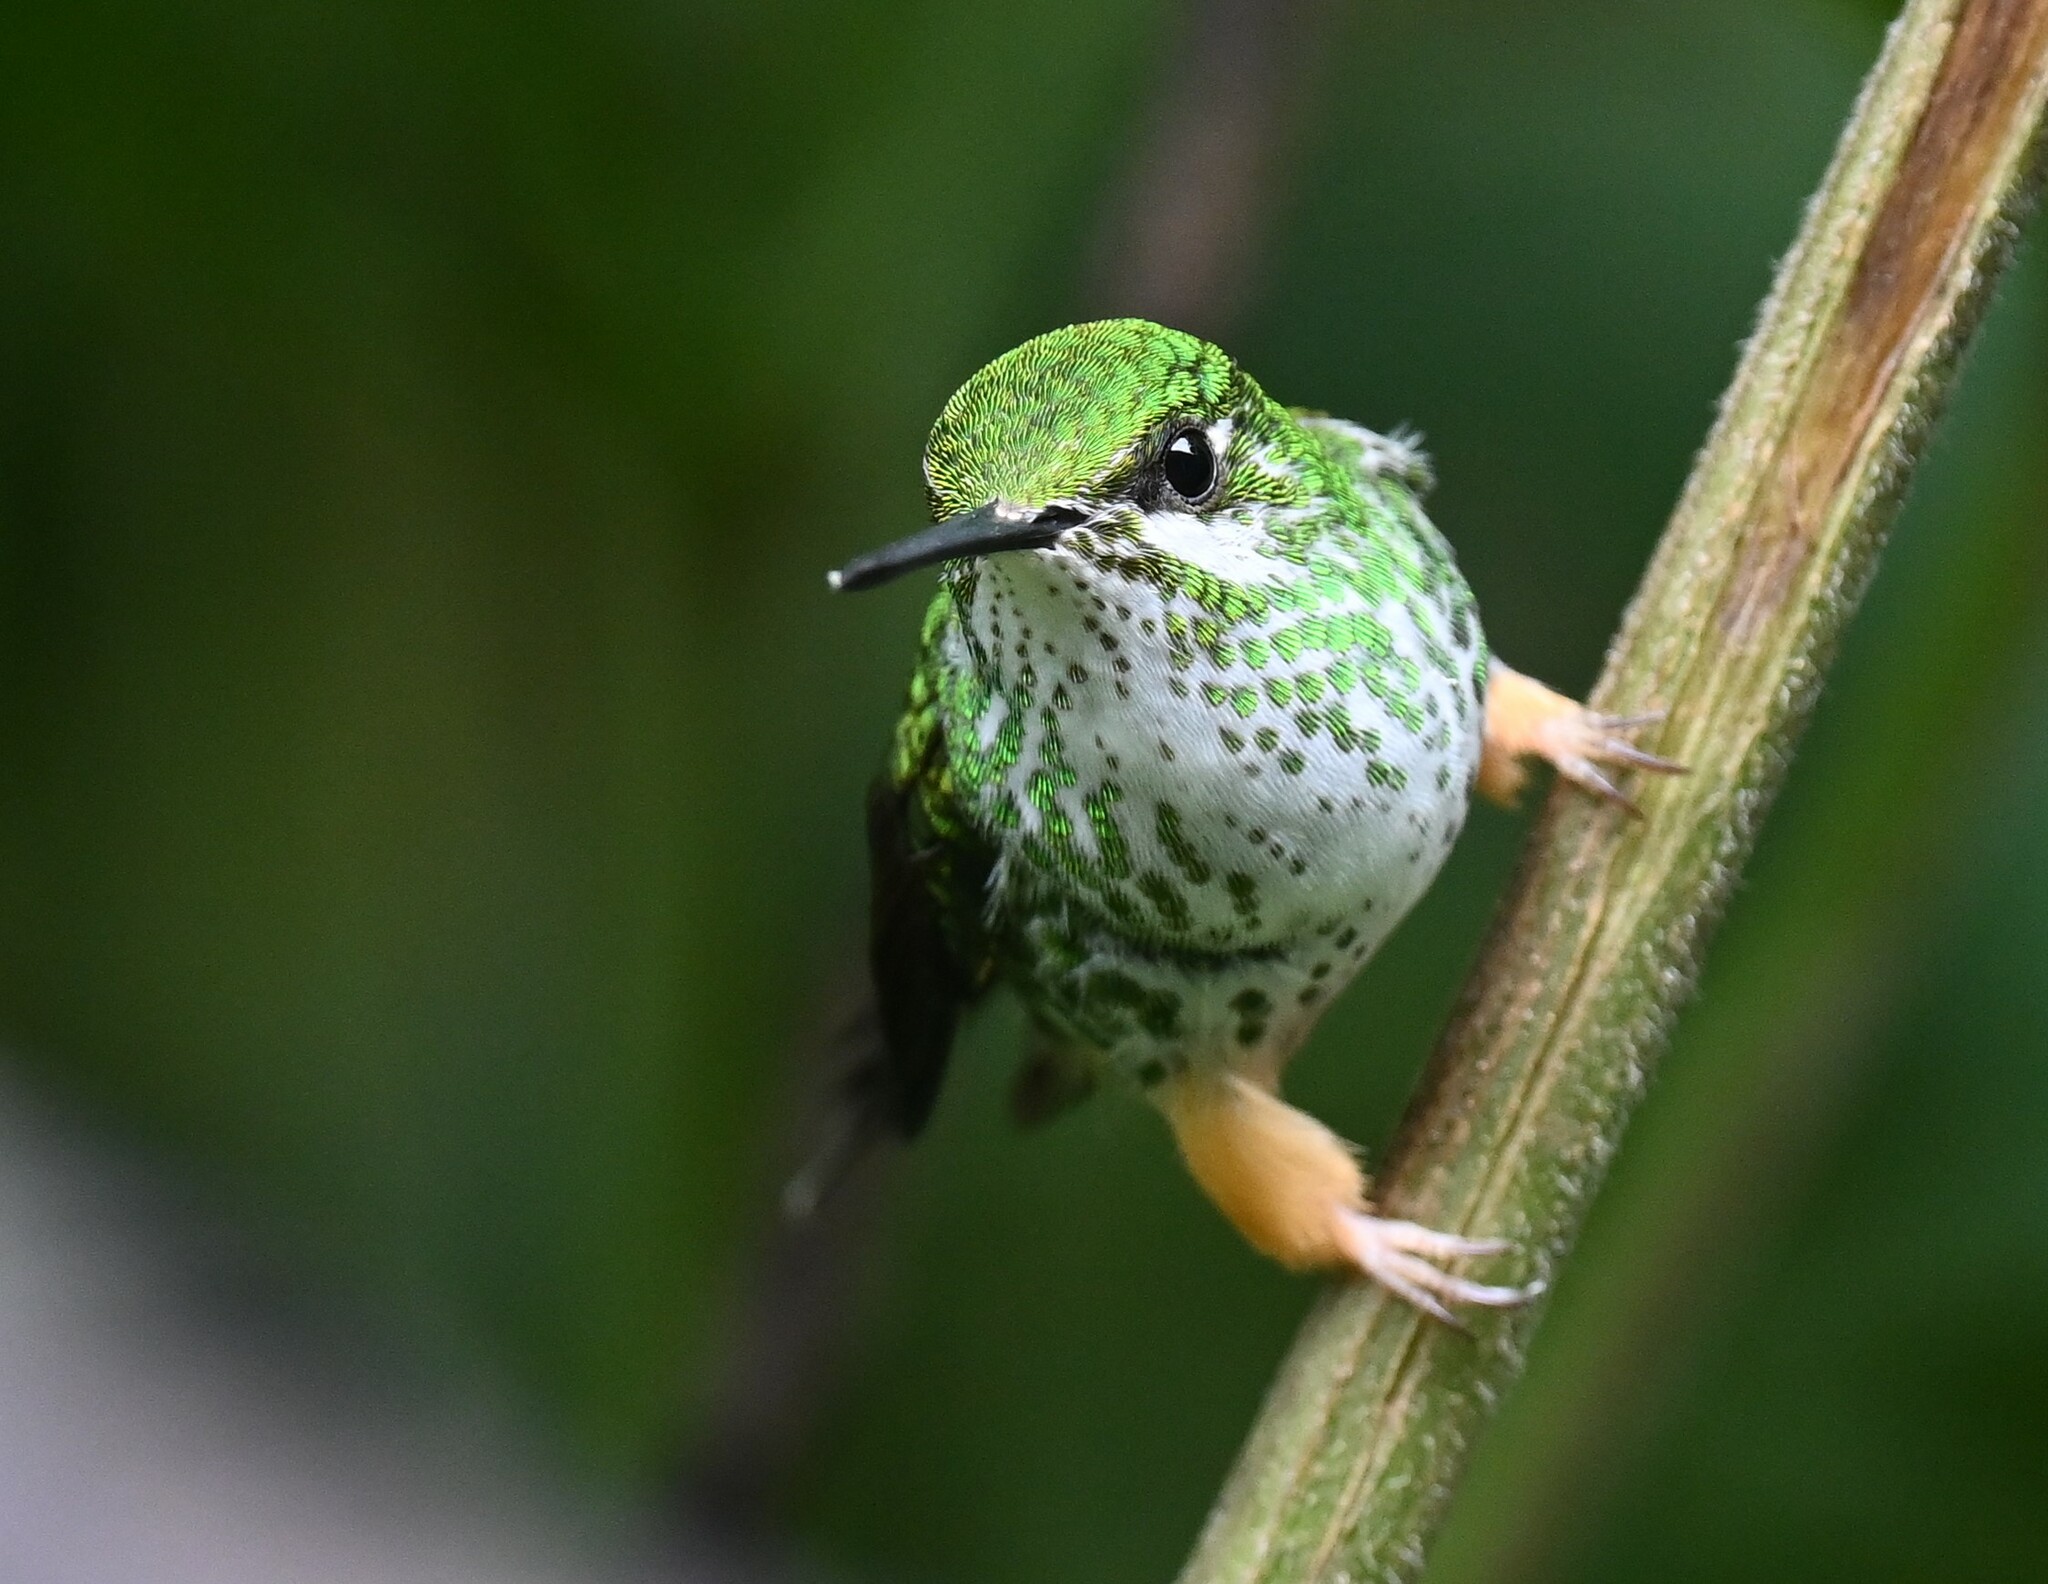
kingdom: Animalia
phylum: Chordata
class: Aves
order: Apodiformes
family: Trochilidae
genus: Ocreatus
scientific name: Ocreatus peruanus
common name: Peruvian racket-tail
